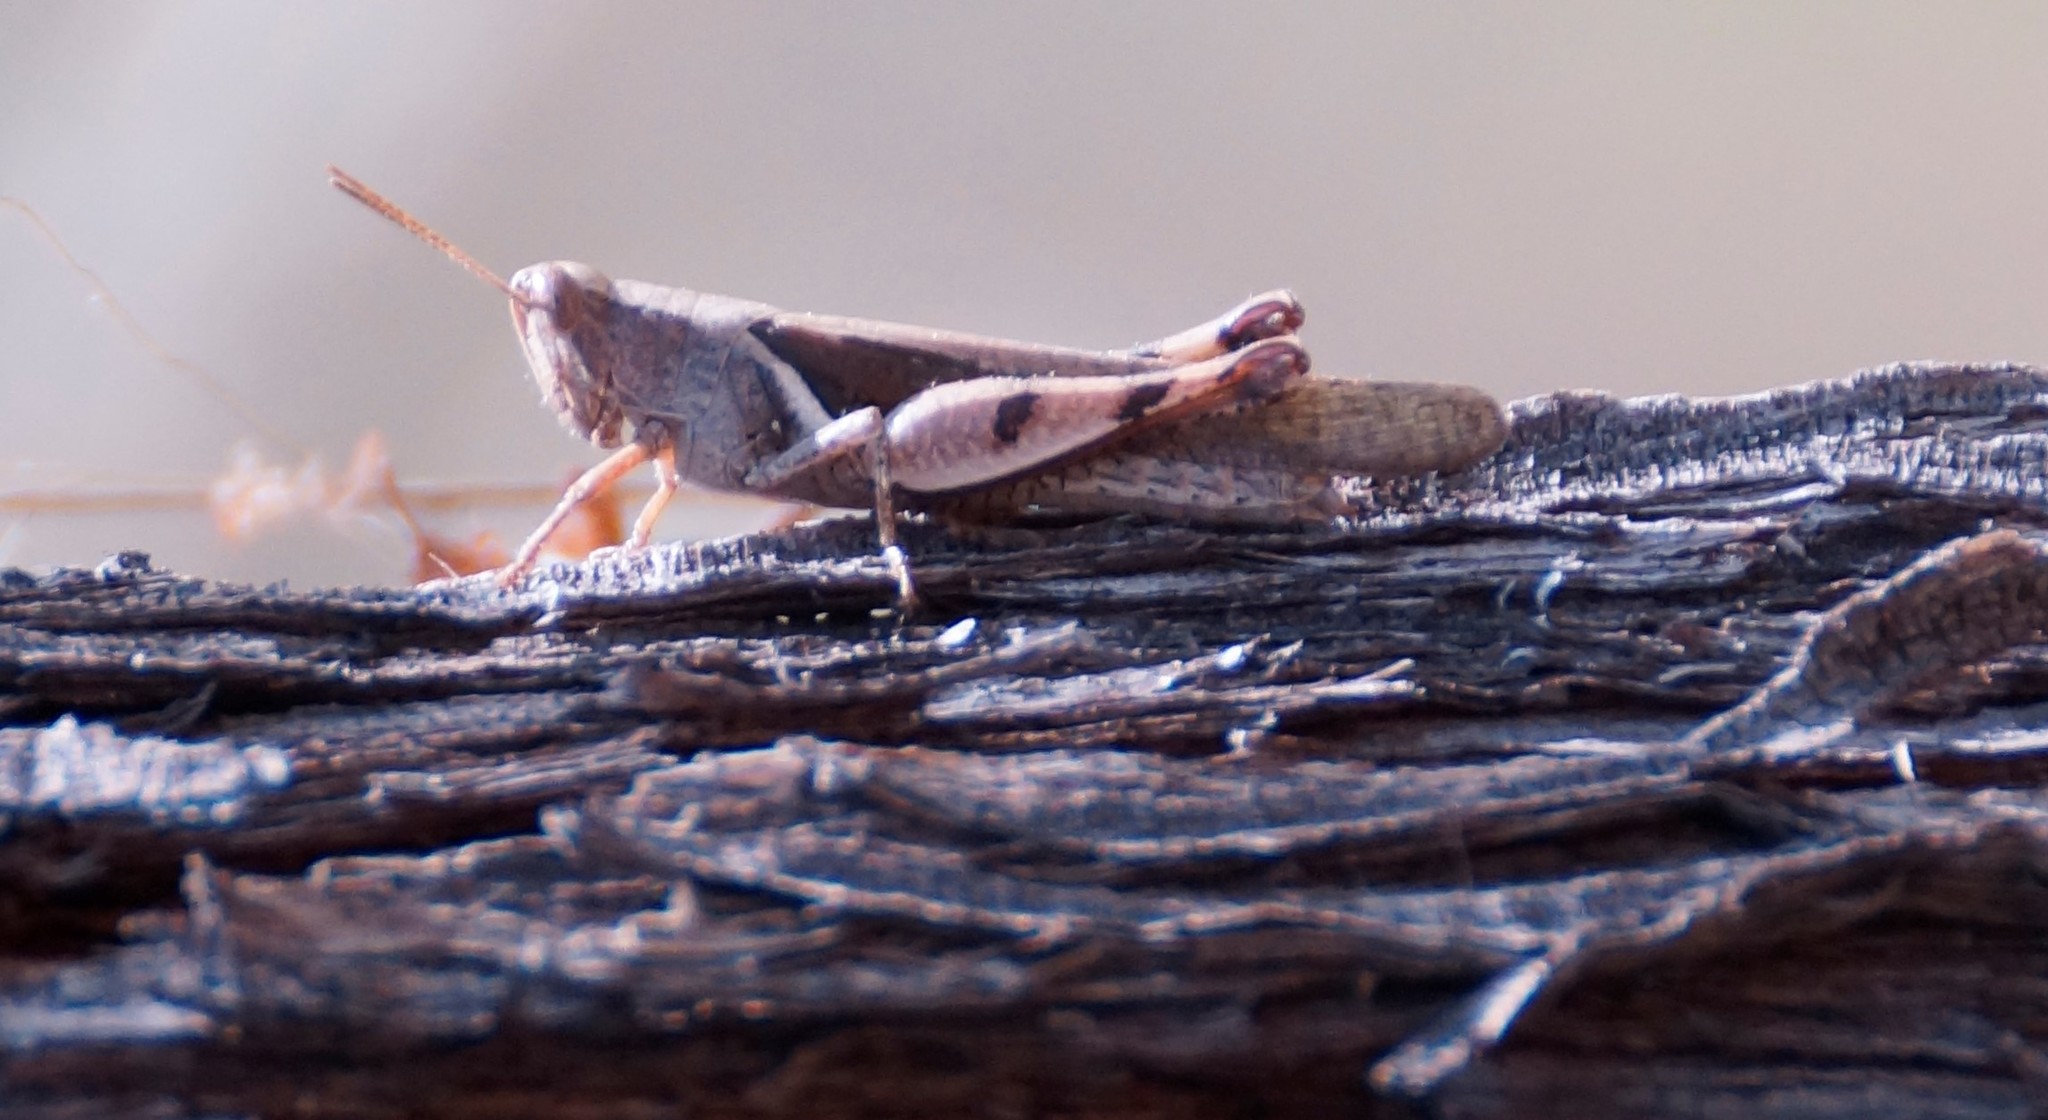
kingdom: Animalia
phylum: Arthropoda
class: Insecta
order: Orthoptera
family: Acrididae
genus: Stenocatantops
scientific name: Stenocatantops angustifrons
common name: Common tropical sharptail
